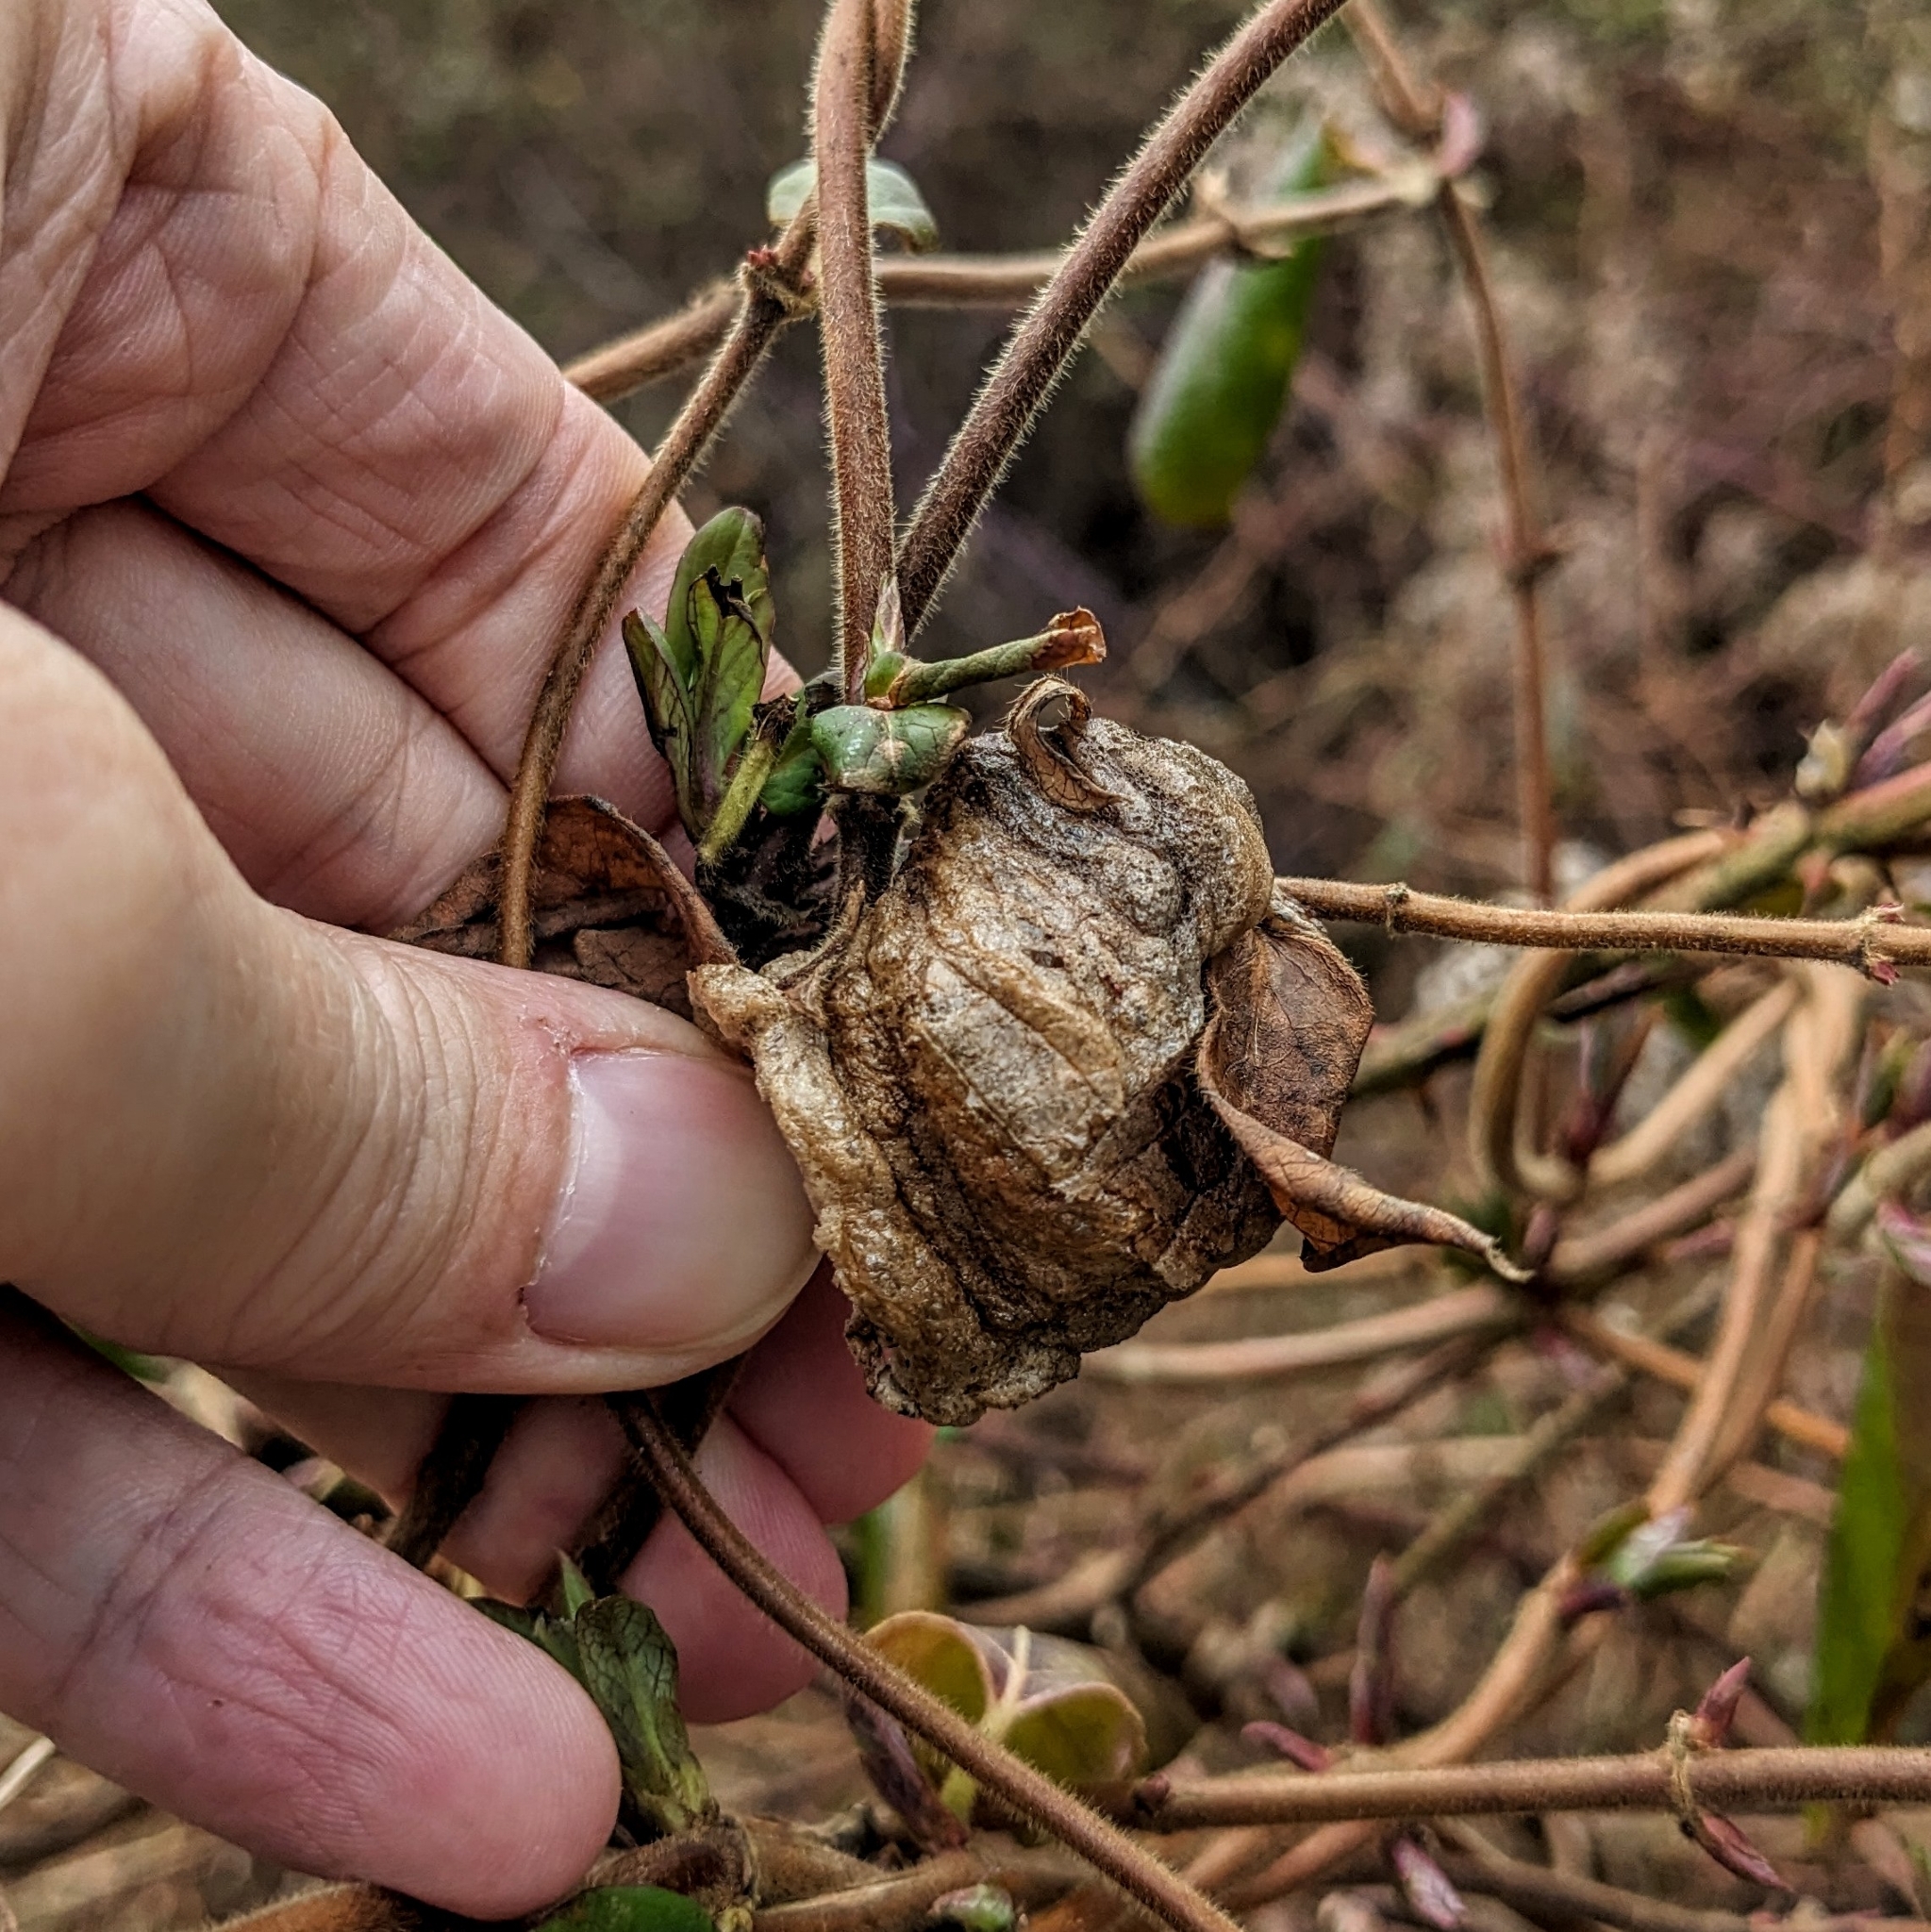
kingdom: Animalia
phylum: Arthropoda
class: Insecta
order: Mantodea
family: Mantidae
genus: Tenodera
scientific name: Tenodera sinensis
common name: Chinese mantis
